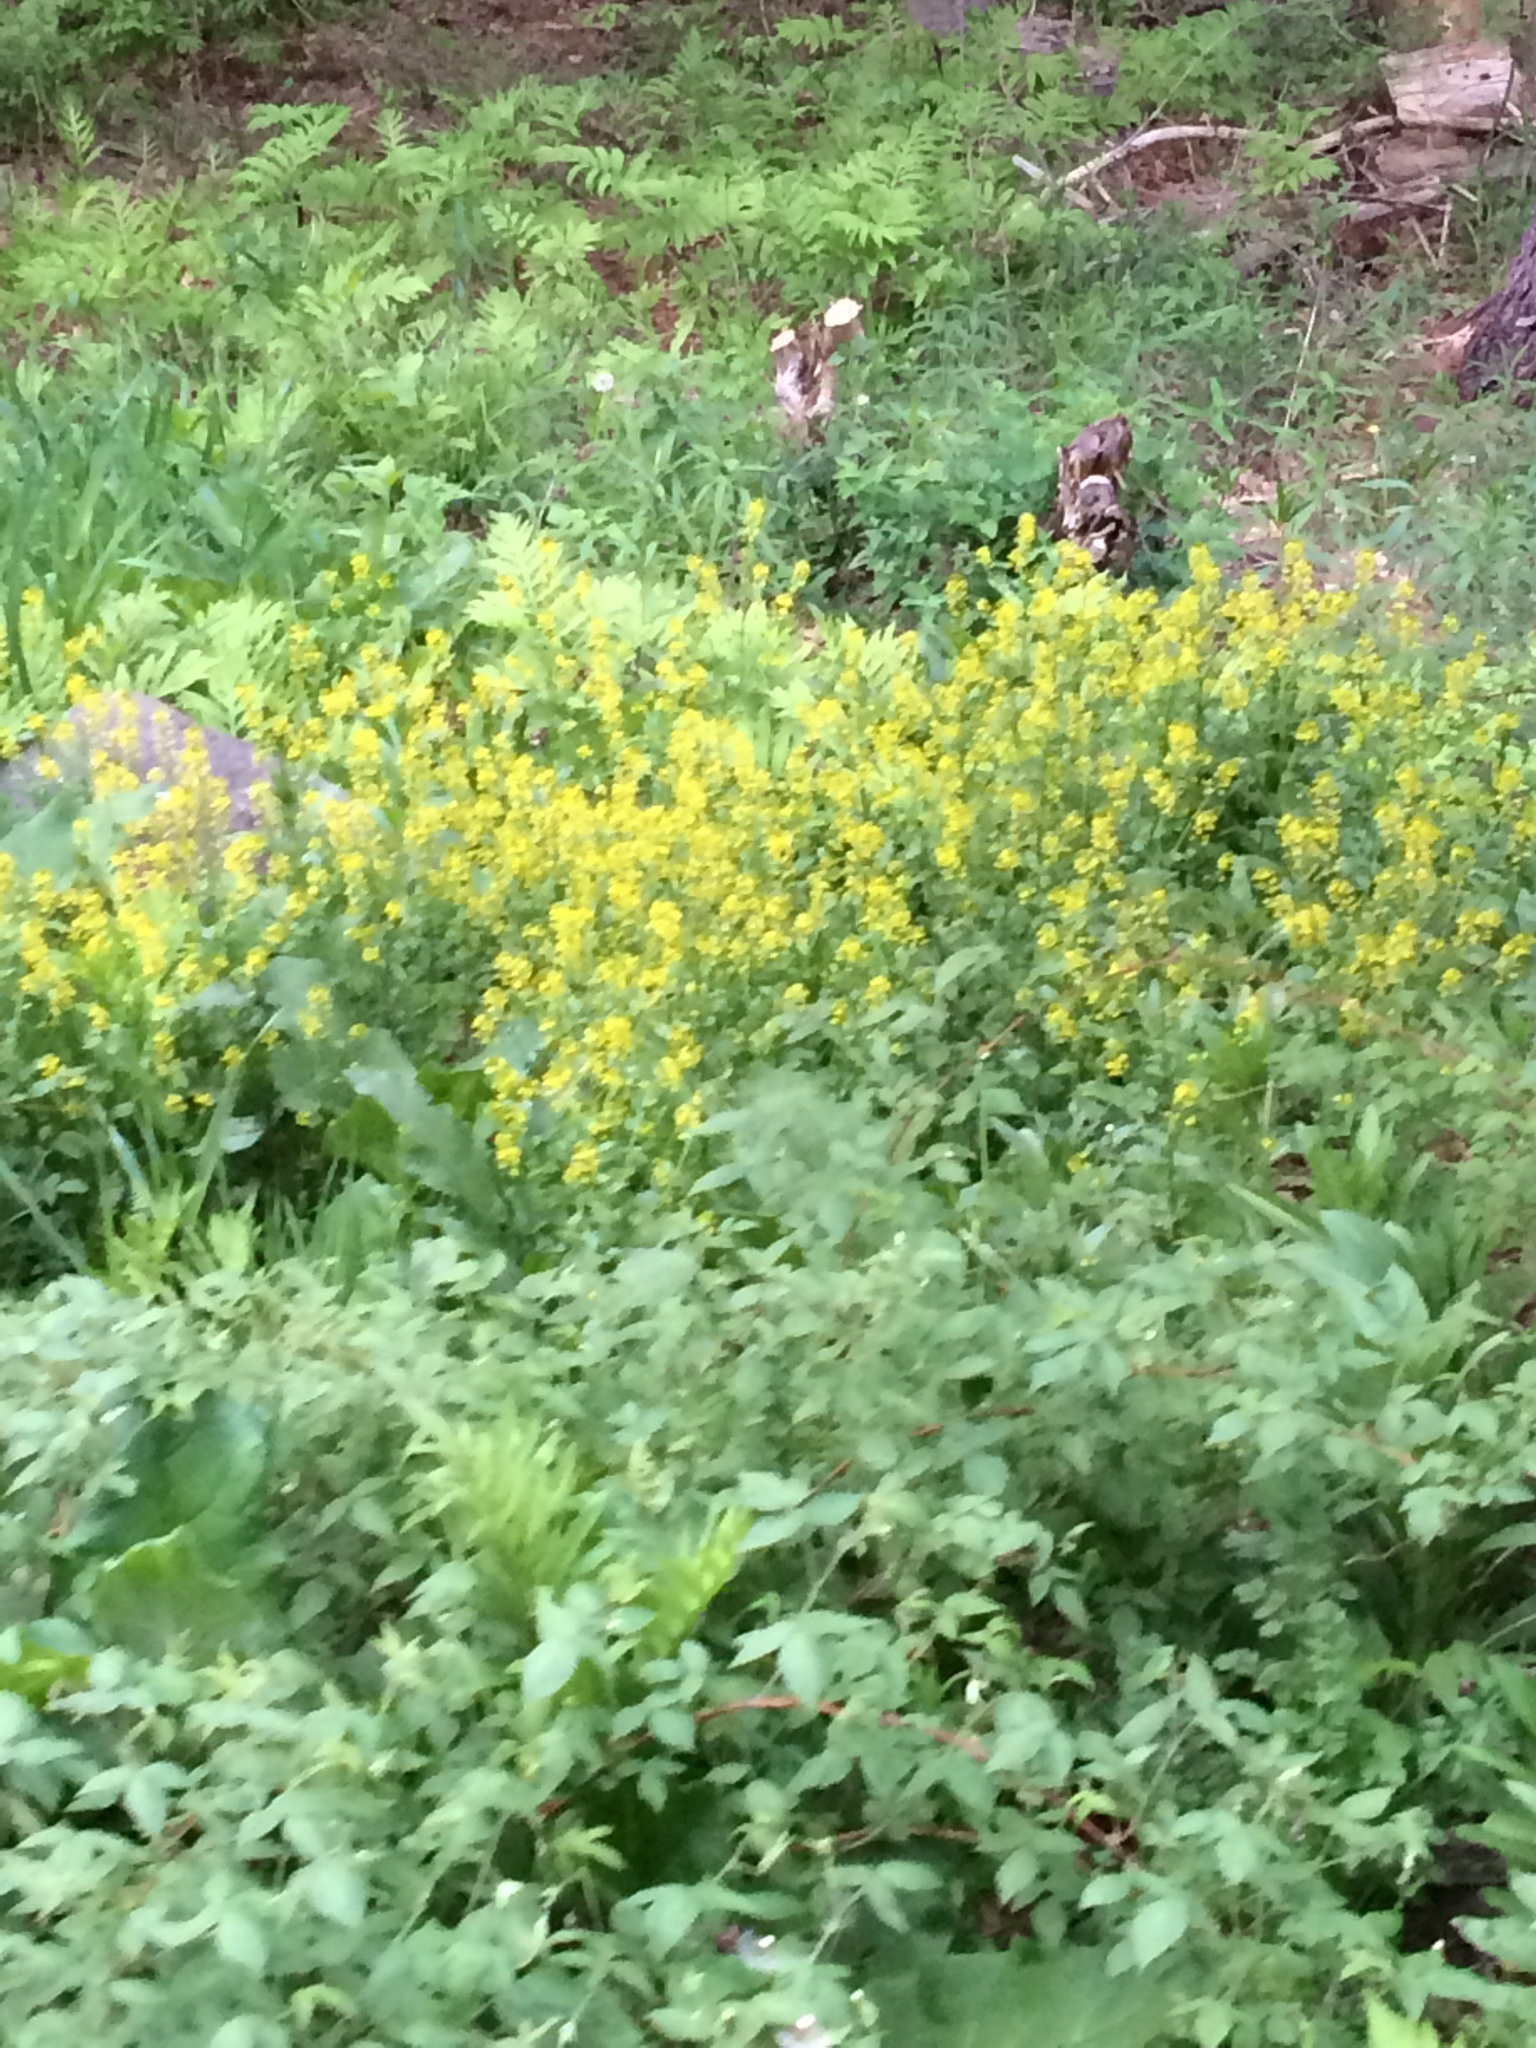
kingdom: Plantae
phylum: Tracheophyta
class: Magnoliopsida
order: Brassicales
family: Brassicaceae
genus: Barbarea
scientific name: Barbarea vulgaris
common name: Cressy-greens
